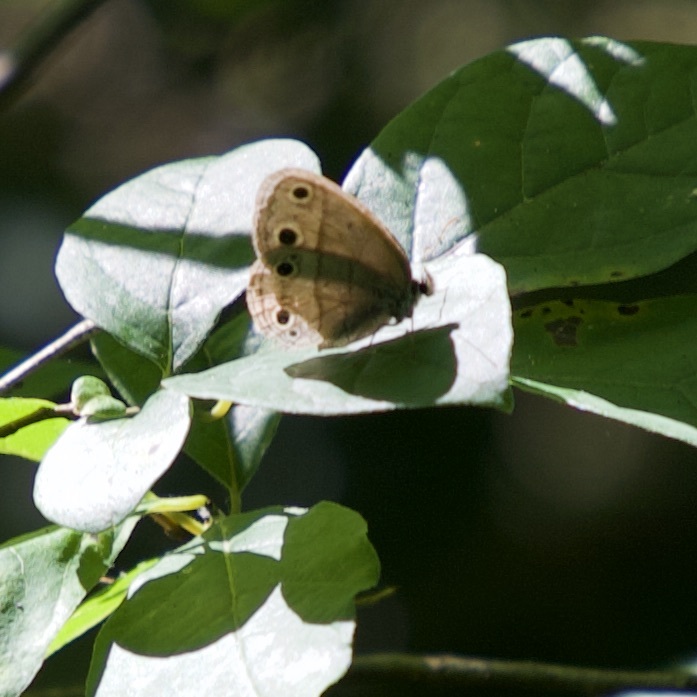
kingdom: Animalia
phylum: Arthropoda
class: Insecta
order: Lepidoptera
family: Nymphalidae
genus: Euptychia
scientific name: Euptychia cymela
